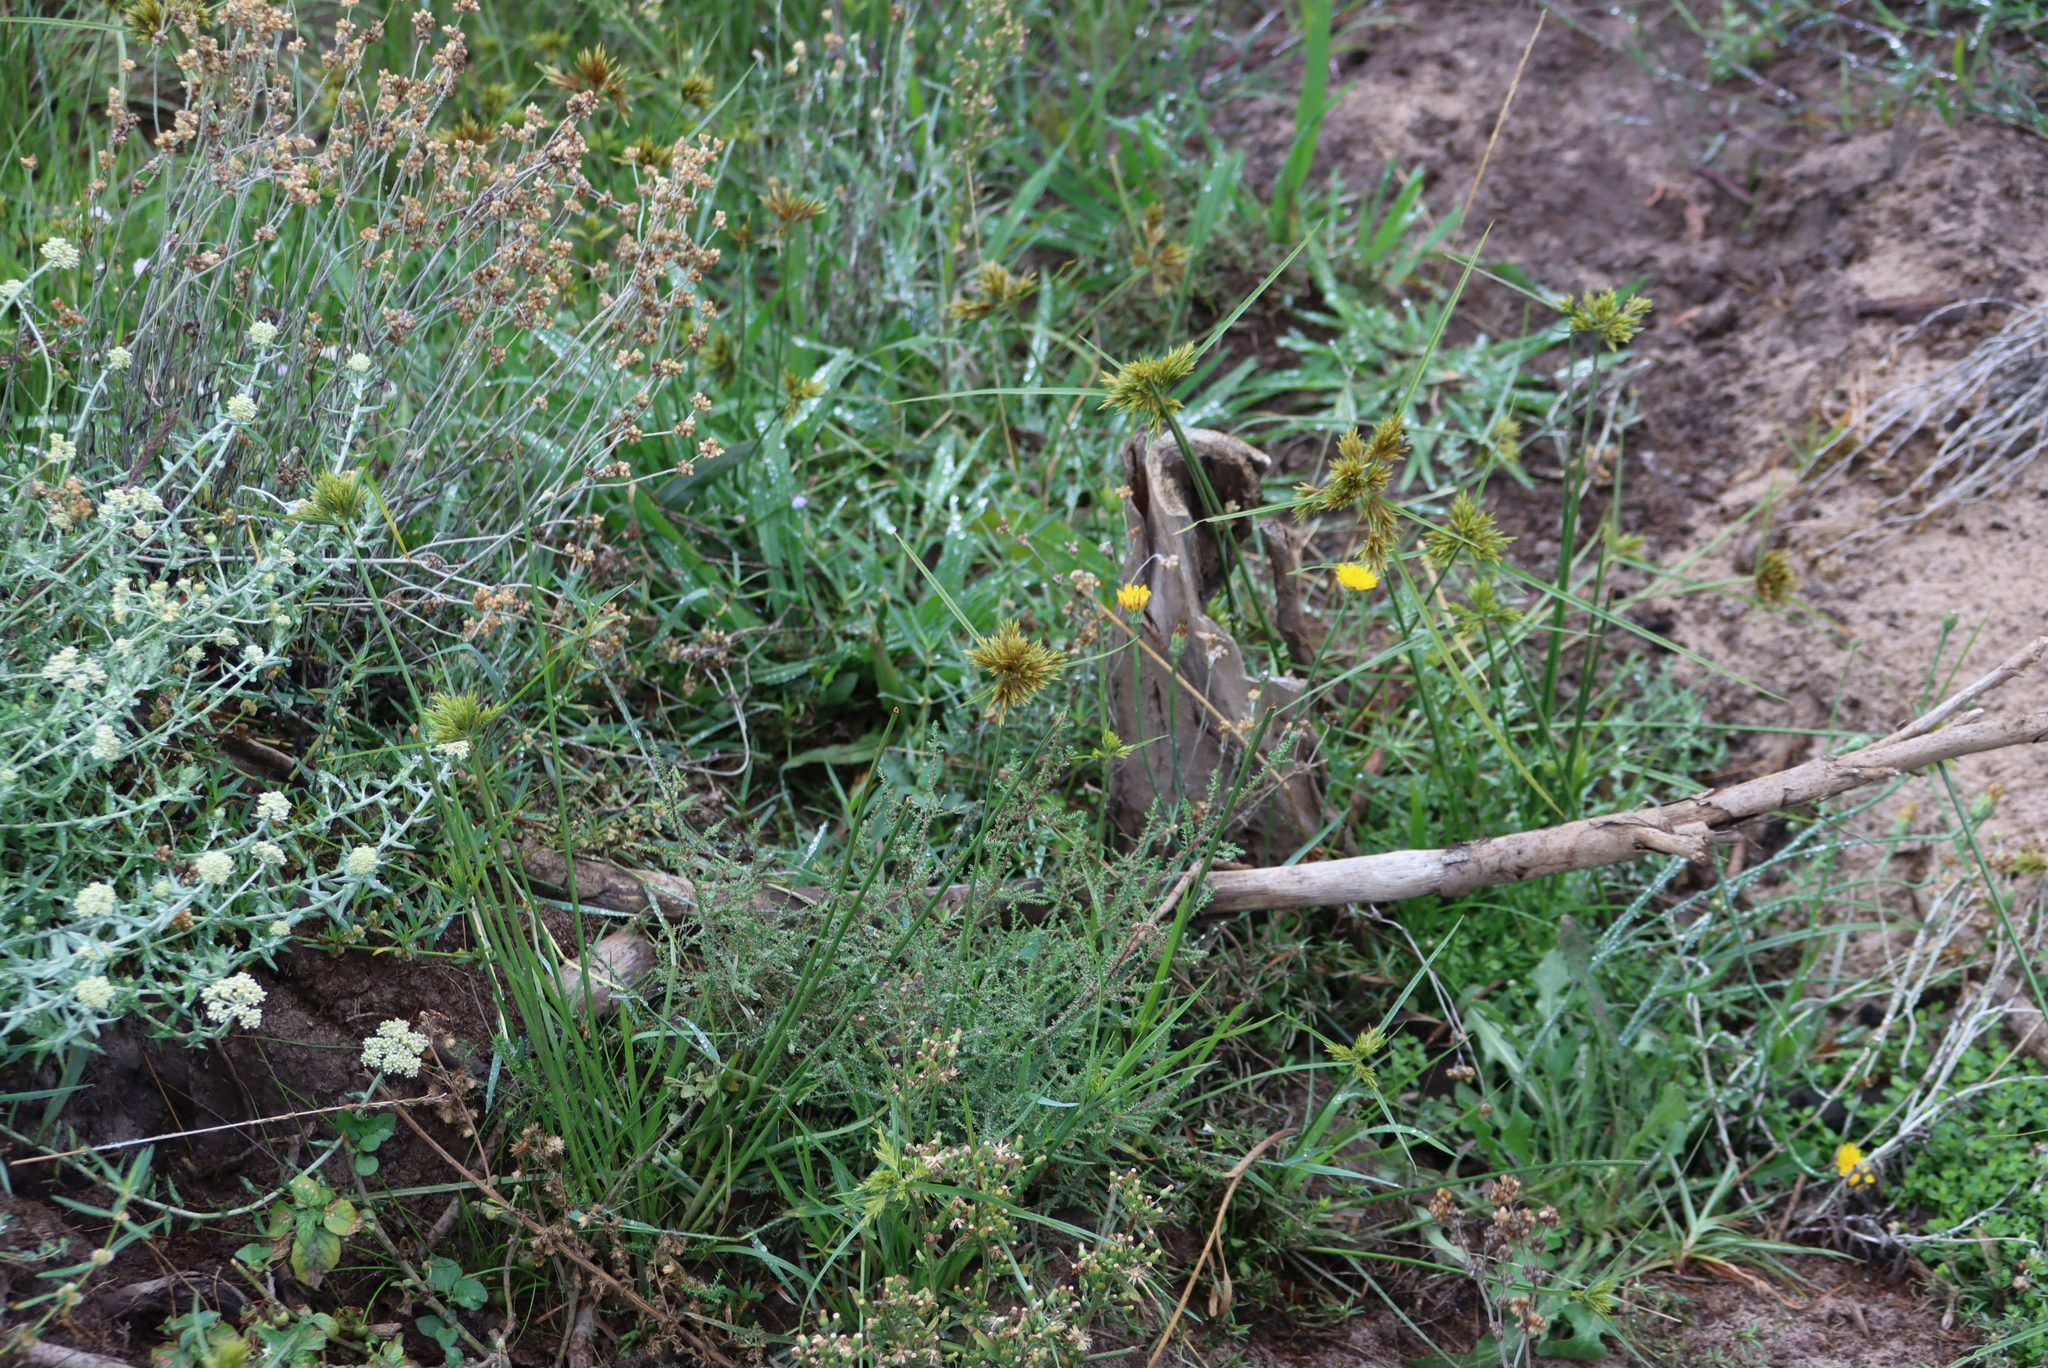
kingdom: Plantae
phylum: Tracheophyta
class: Liliopsida
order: Poales
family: Cyperaceae
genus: Cyperus
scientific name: Cyperus polystachyos
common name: Bunchy flat sedge
